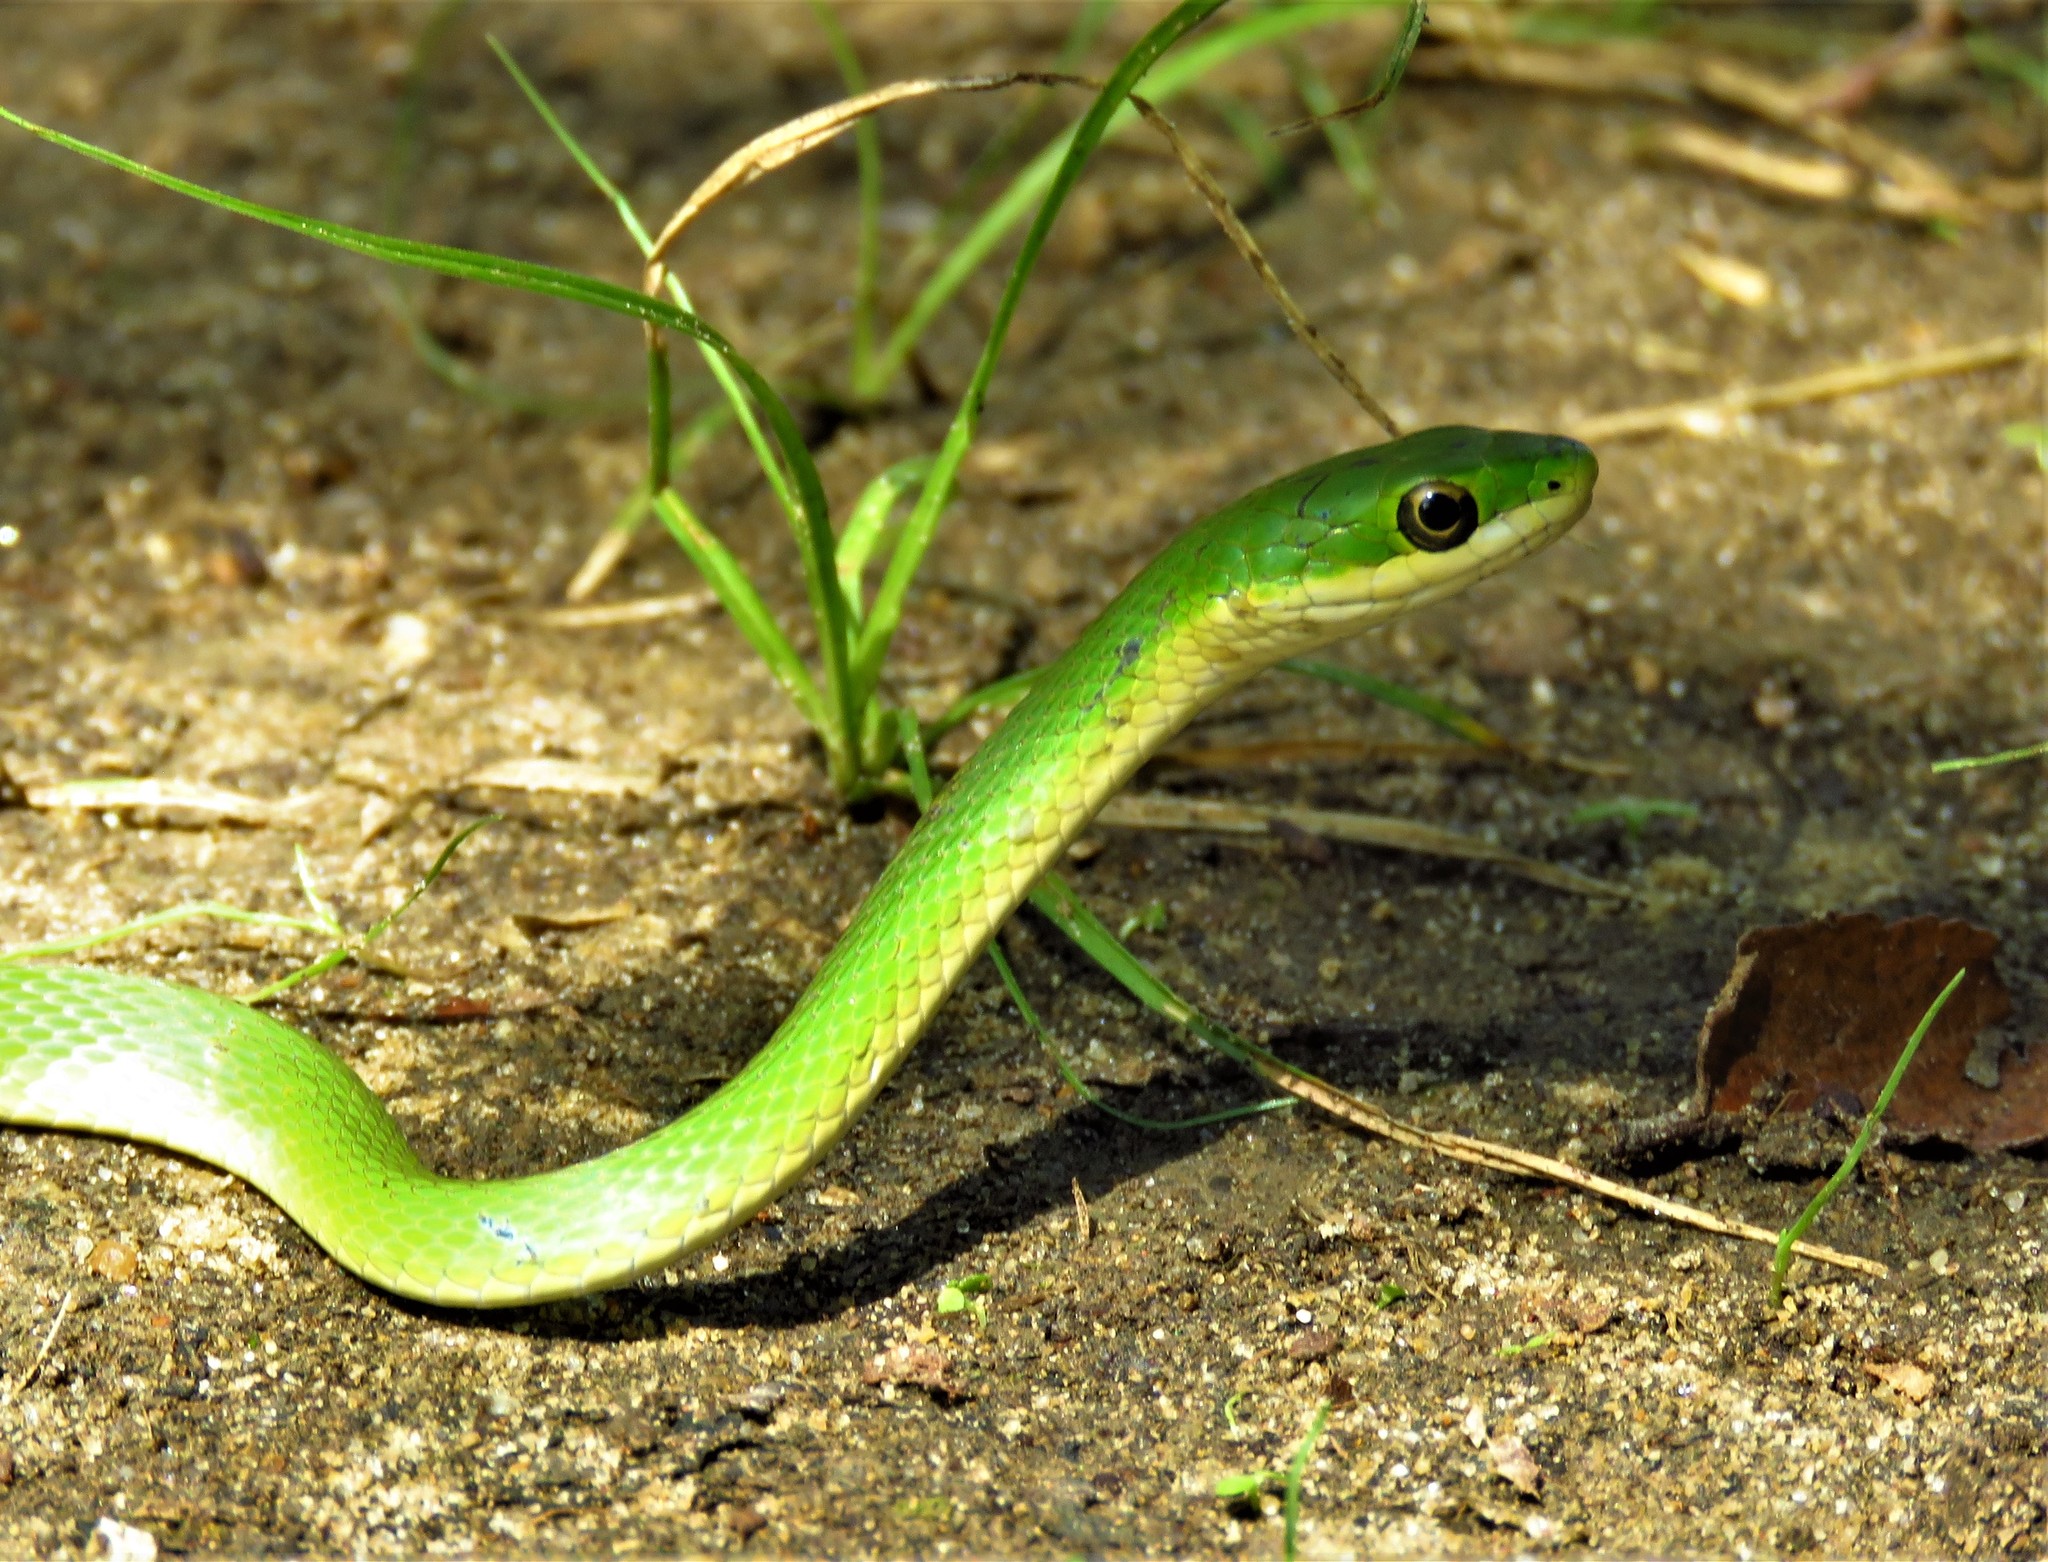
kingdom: Animalia
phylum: Chordata
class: Squamata
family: Colubridae
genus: Opheodrys
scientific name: Opheodrys aestivus
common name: Rough greensnake
